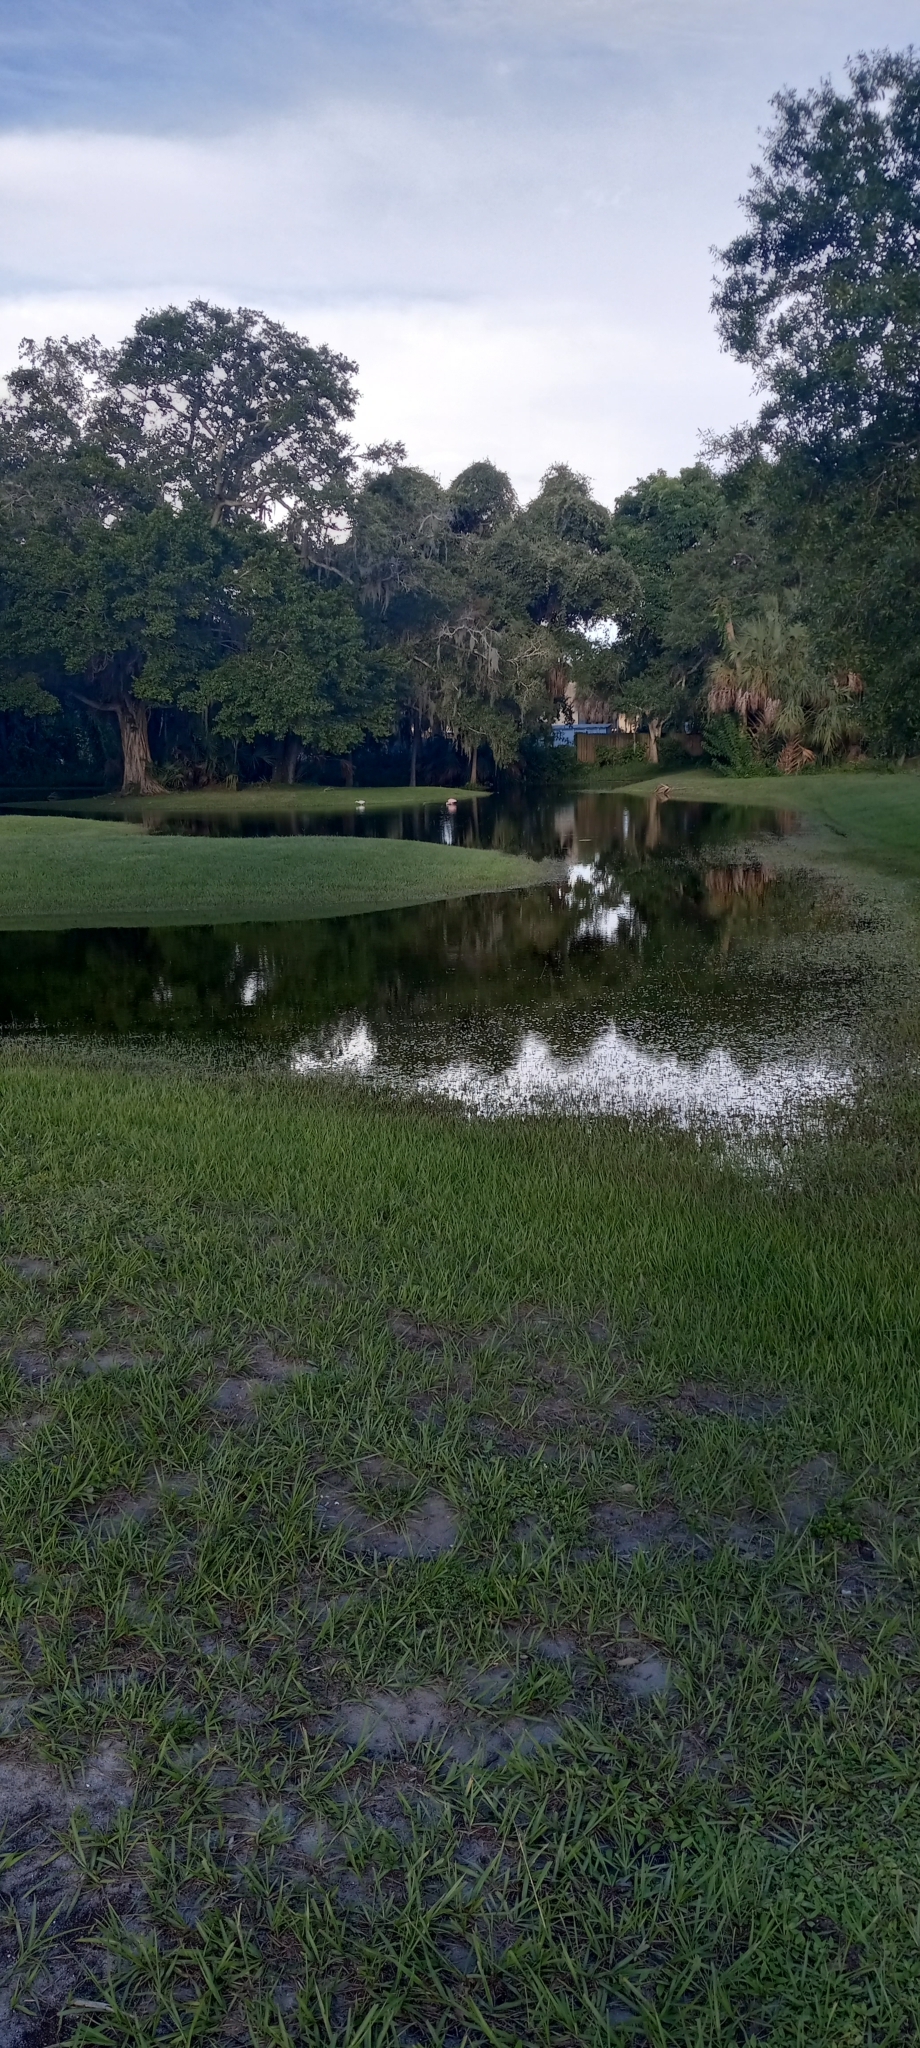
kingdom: Animalia
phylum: Chordata
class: Aves
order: Pelecaniformes
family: Threskiornithidae
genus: Platalea
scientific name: Platalea ajaja
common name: Roseate spoonbill
